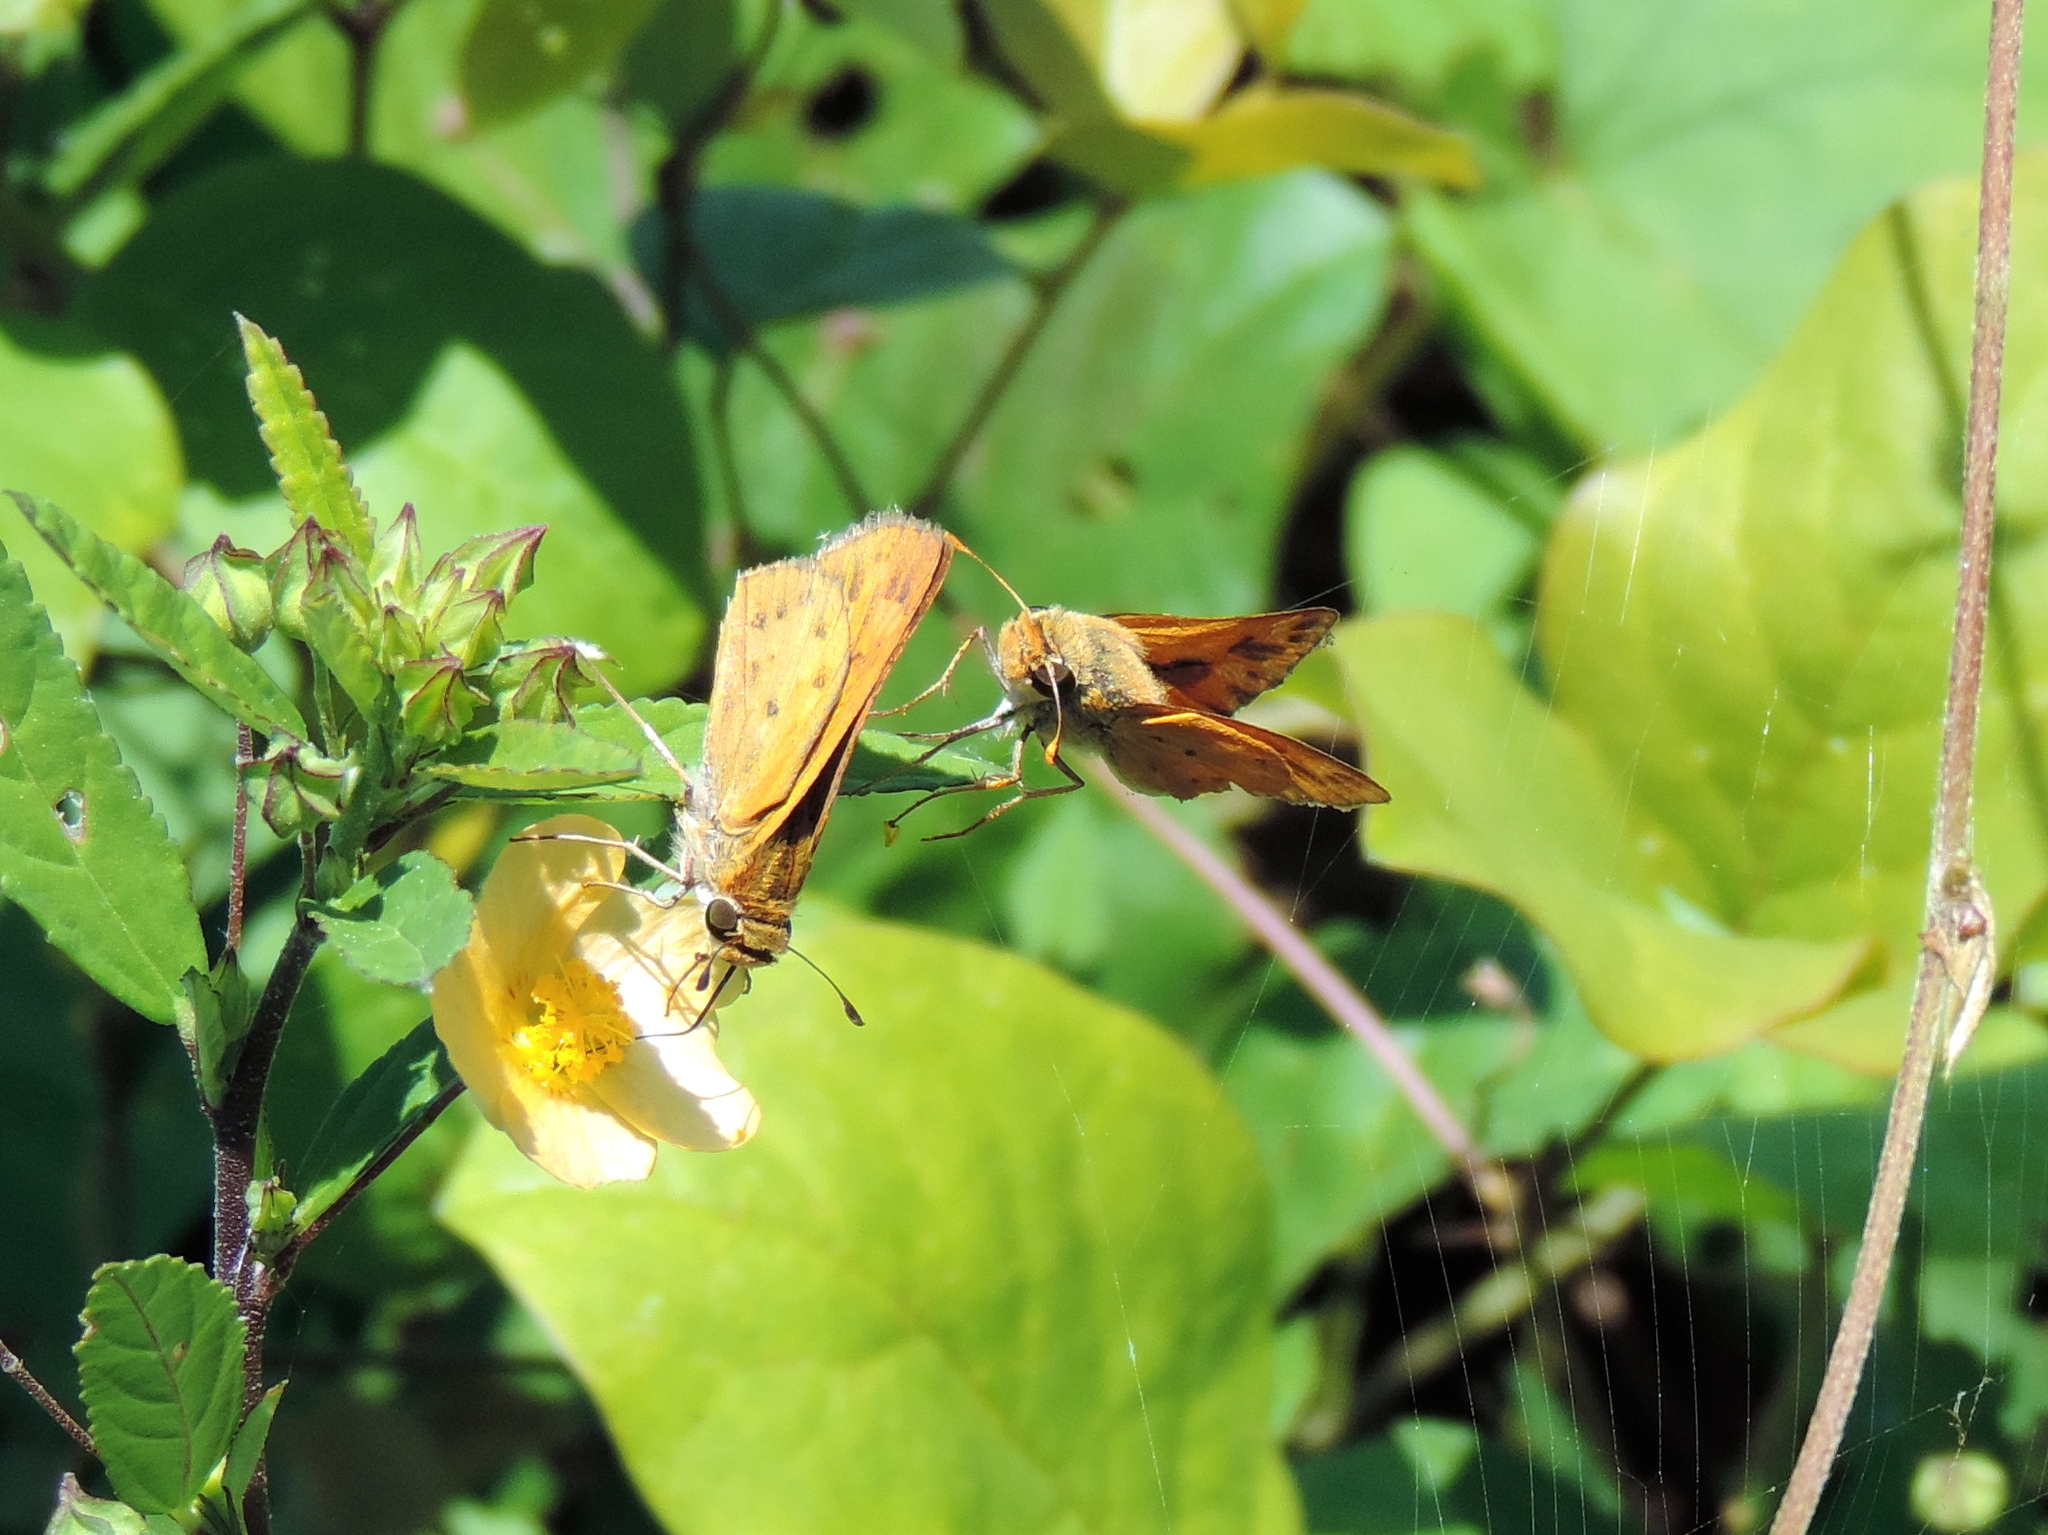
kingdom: Animalia
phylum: Arthropoda
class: Insecta
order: Lepidoptera
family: Hesperiidae
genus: Hylephila
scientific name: Hylephila phyleus
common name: Fiery skipper
